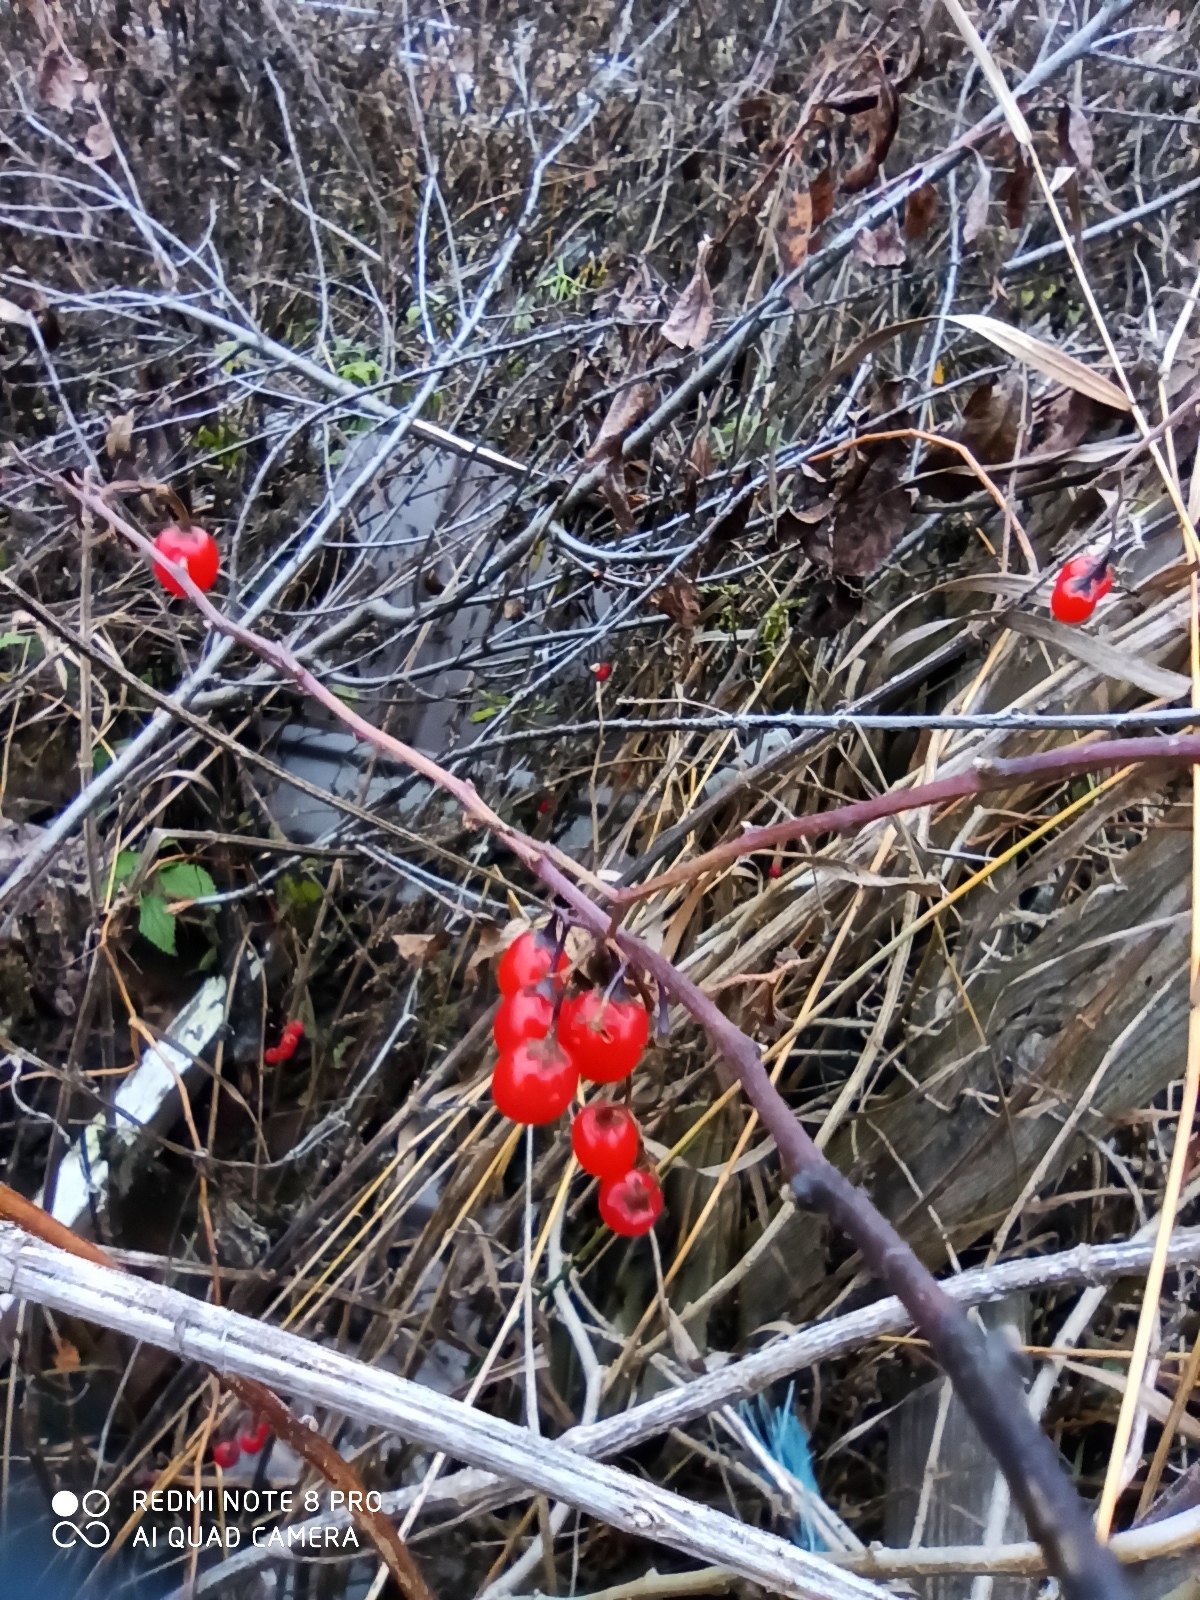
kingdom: Plantae
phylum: Tracheophyta
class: Magnoliopsida
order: Solanales
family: Solanaceae
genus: Solanum
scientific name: Solanum dulcamara
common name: Climbing nightshade
